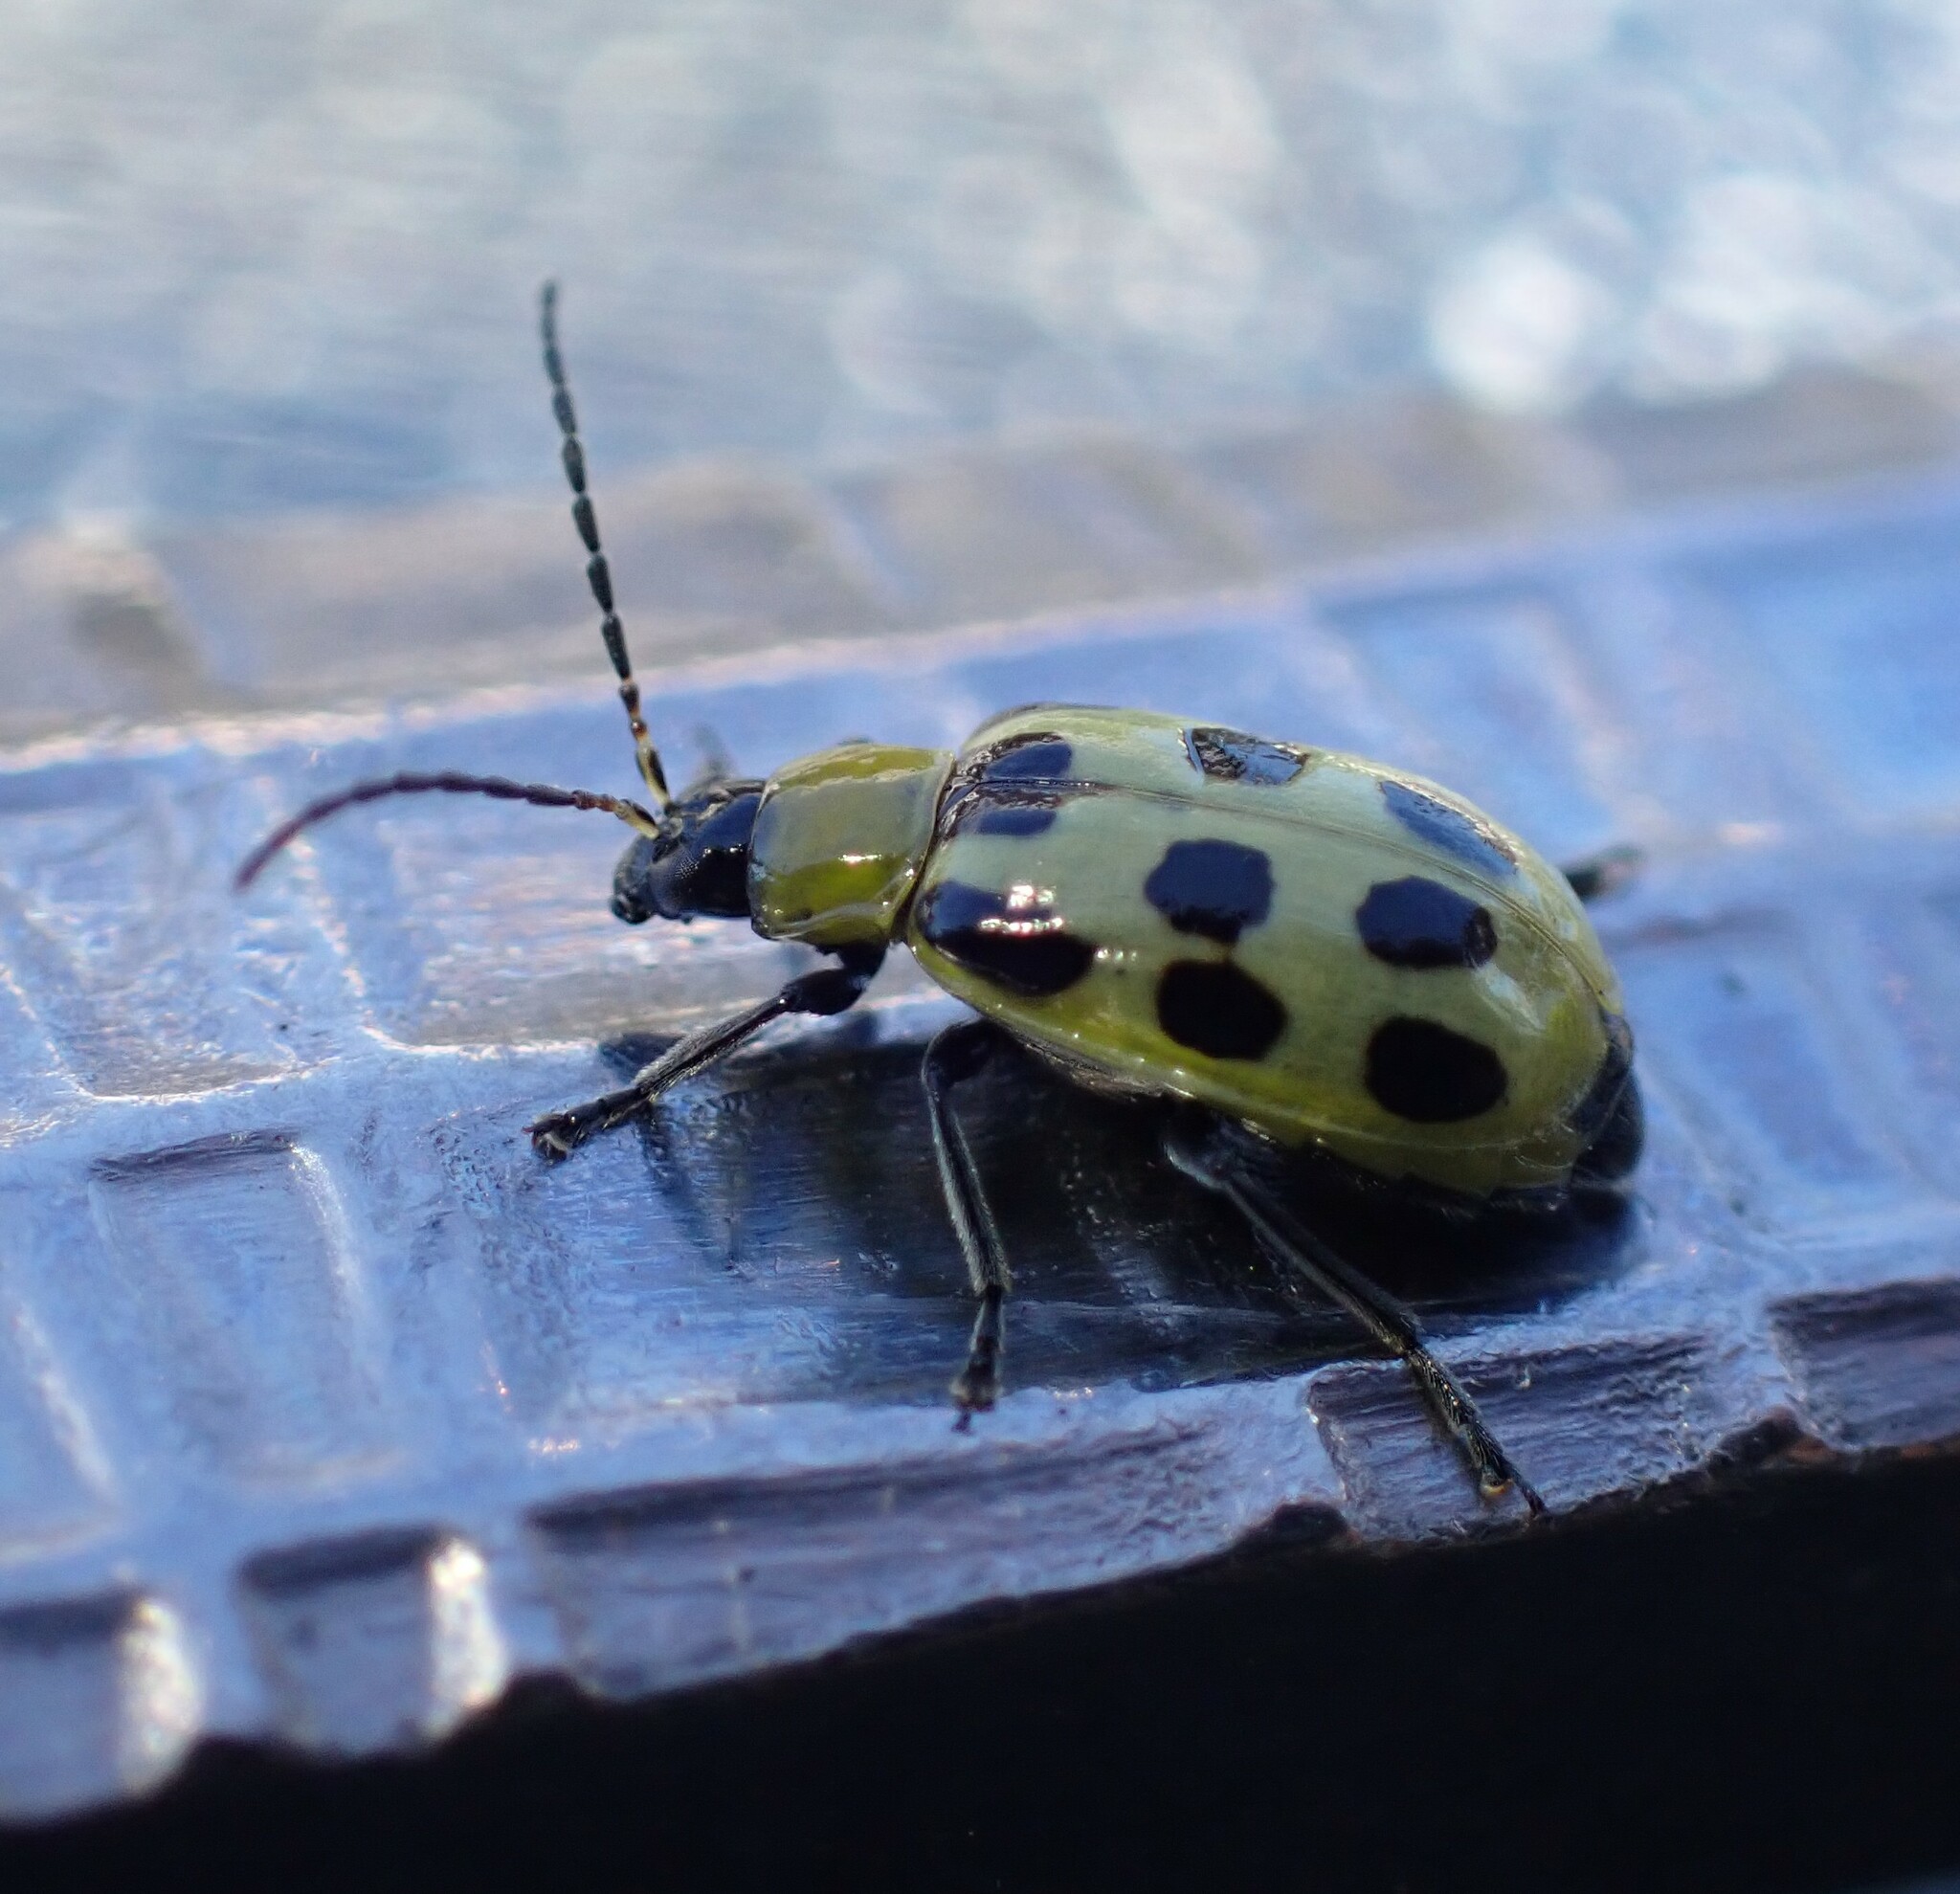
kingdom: Animalia
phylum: Arthropoda
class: Insecta
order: Coleoptera
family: Chrysomelidae
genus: Diabrotica
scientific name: Diabrotica undecimpunctata
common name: Spotted cucumber beetle
